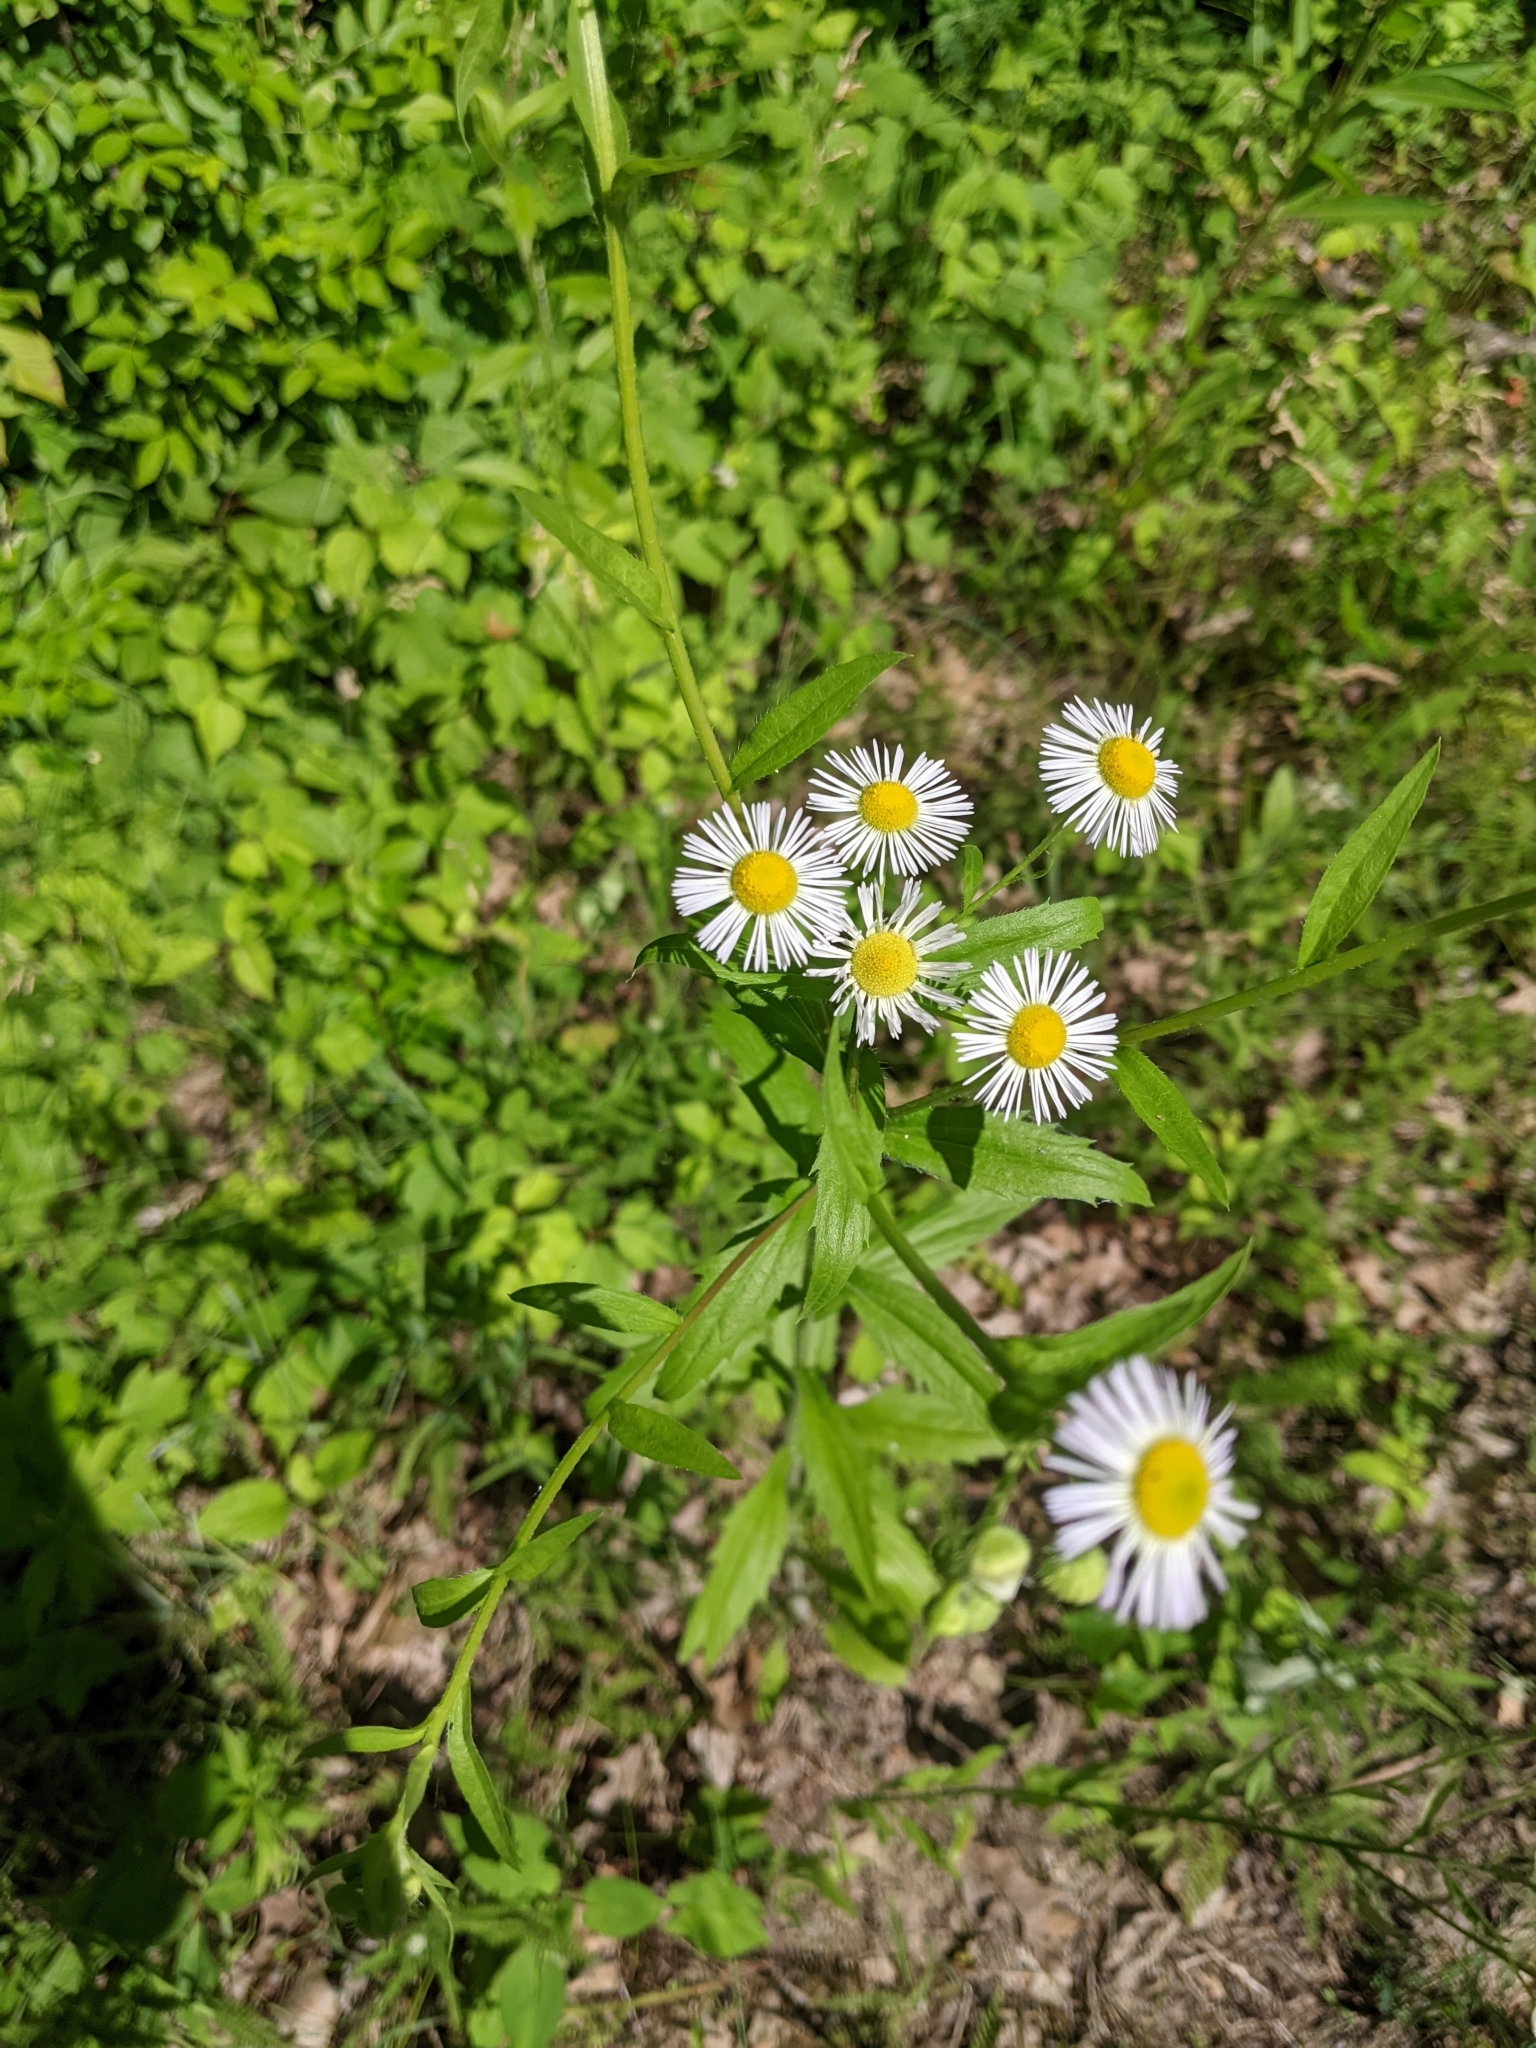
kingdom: Plantae
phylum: Tracheophyta
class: Magnoliopsida
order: Asterales
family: Asteraceae
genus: Erigeron
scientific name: Erigeron annuus
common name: Tall fleabane
